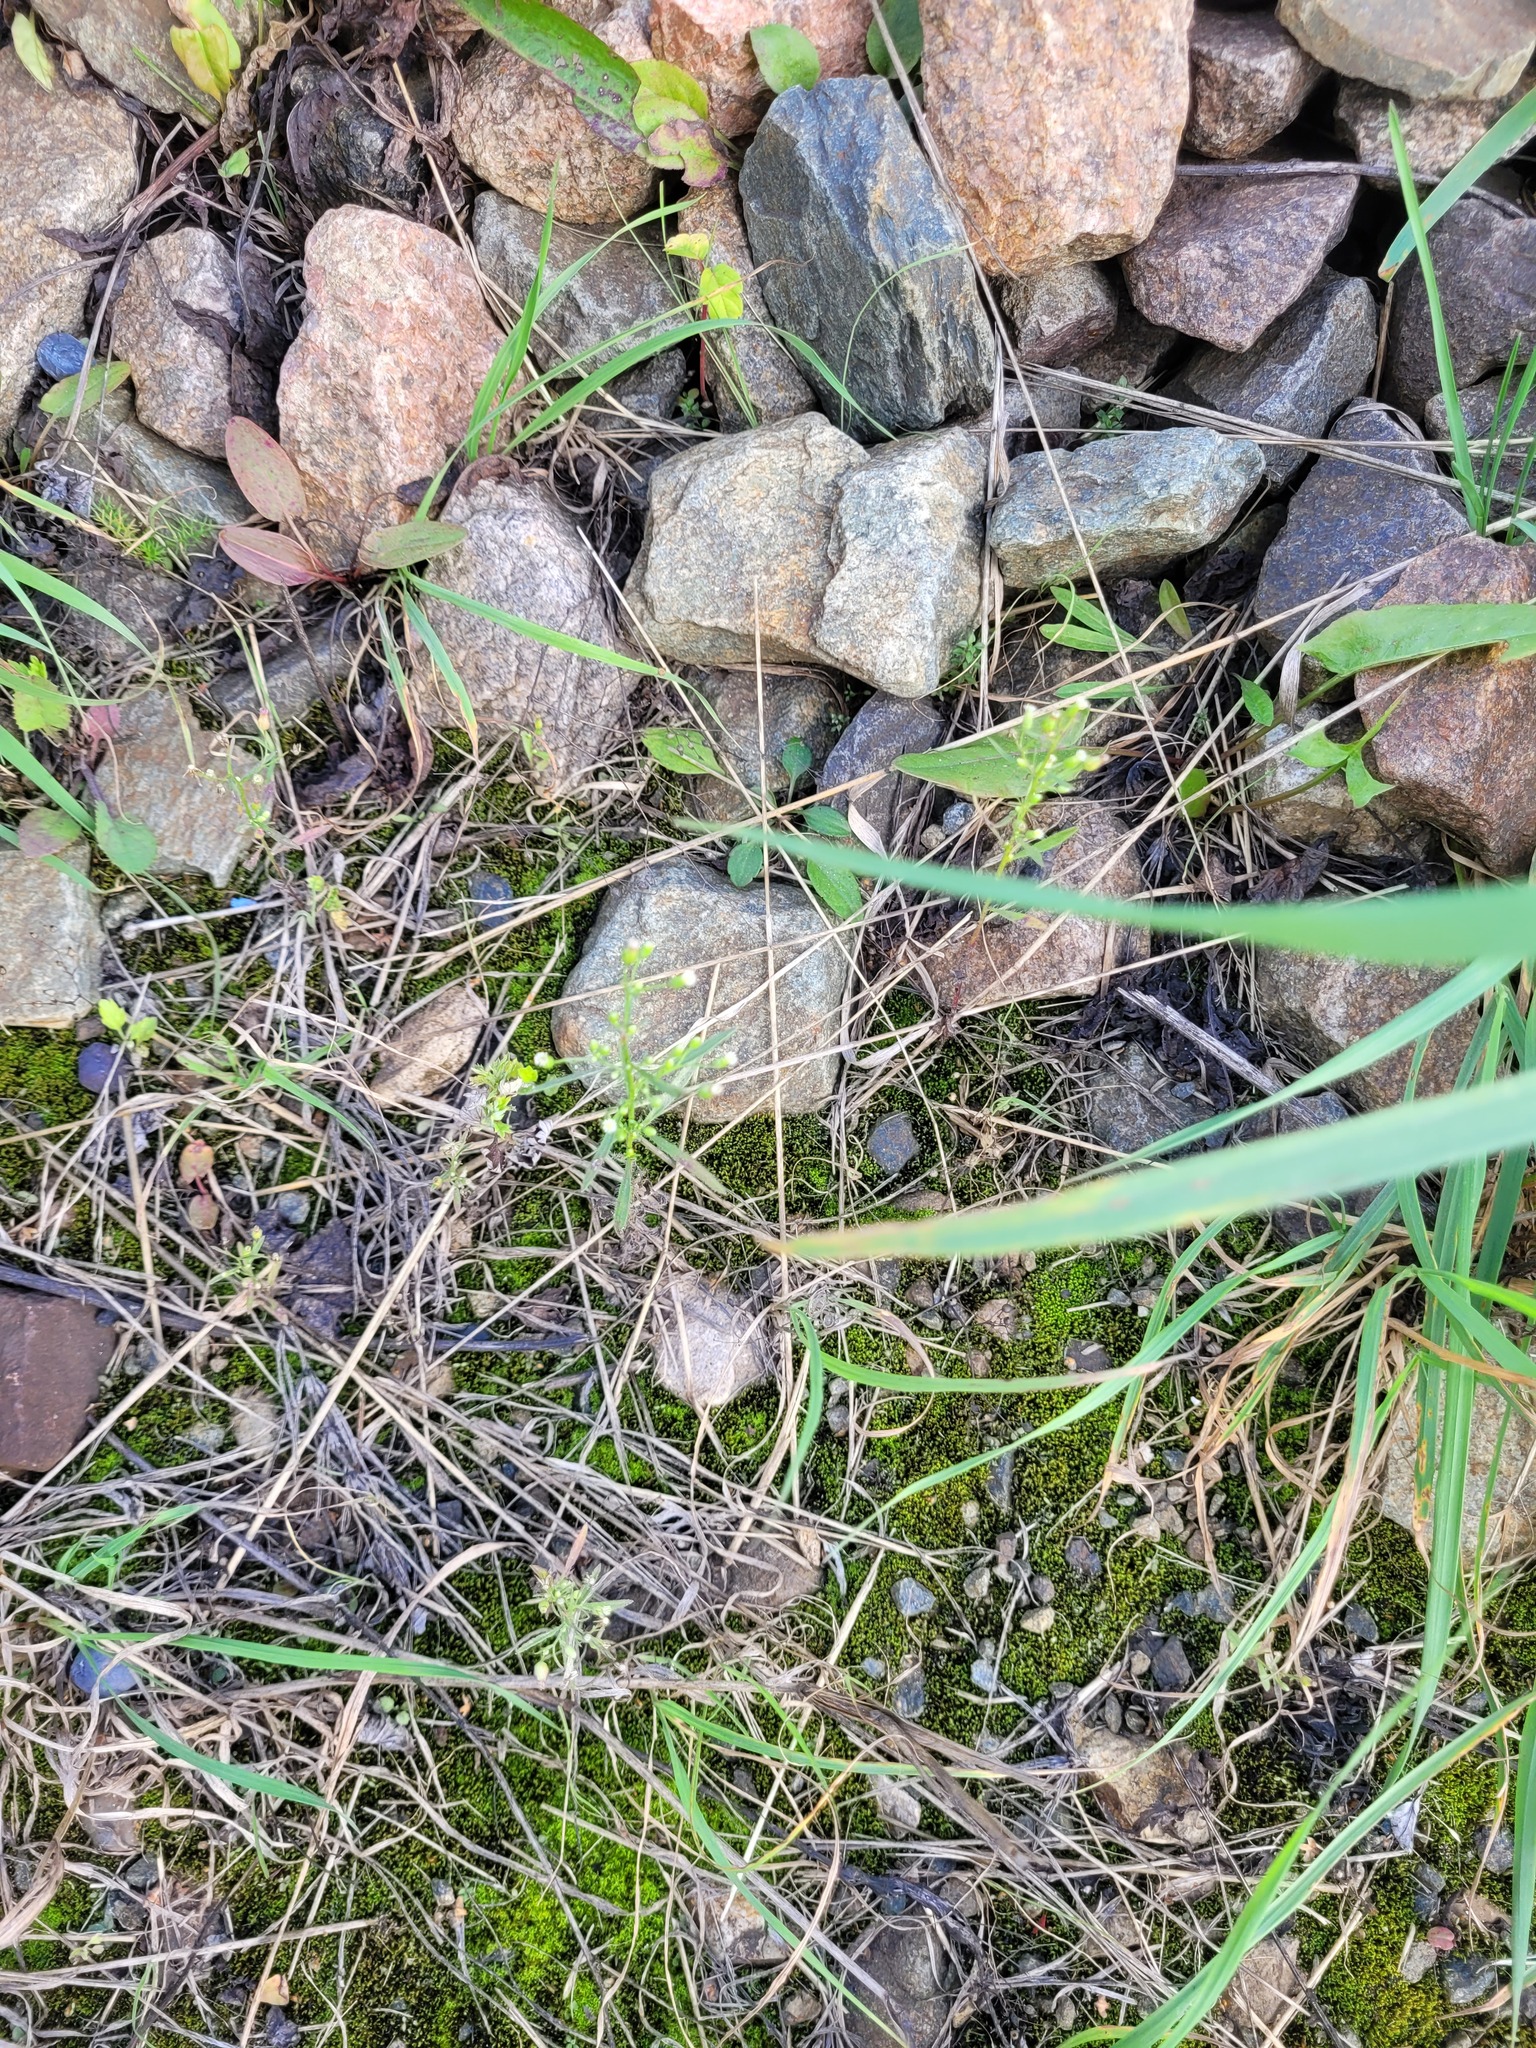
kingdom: Plantae
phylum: Tracheophyta
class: Magnoliopsida
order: Asterales
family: Asteraceae
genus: Erigeron
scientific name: Erigeron canadensis
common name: Canadian fleabane
